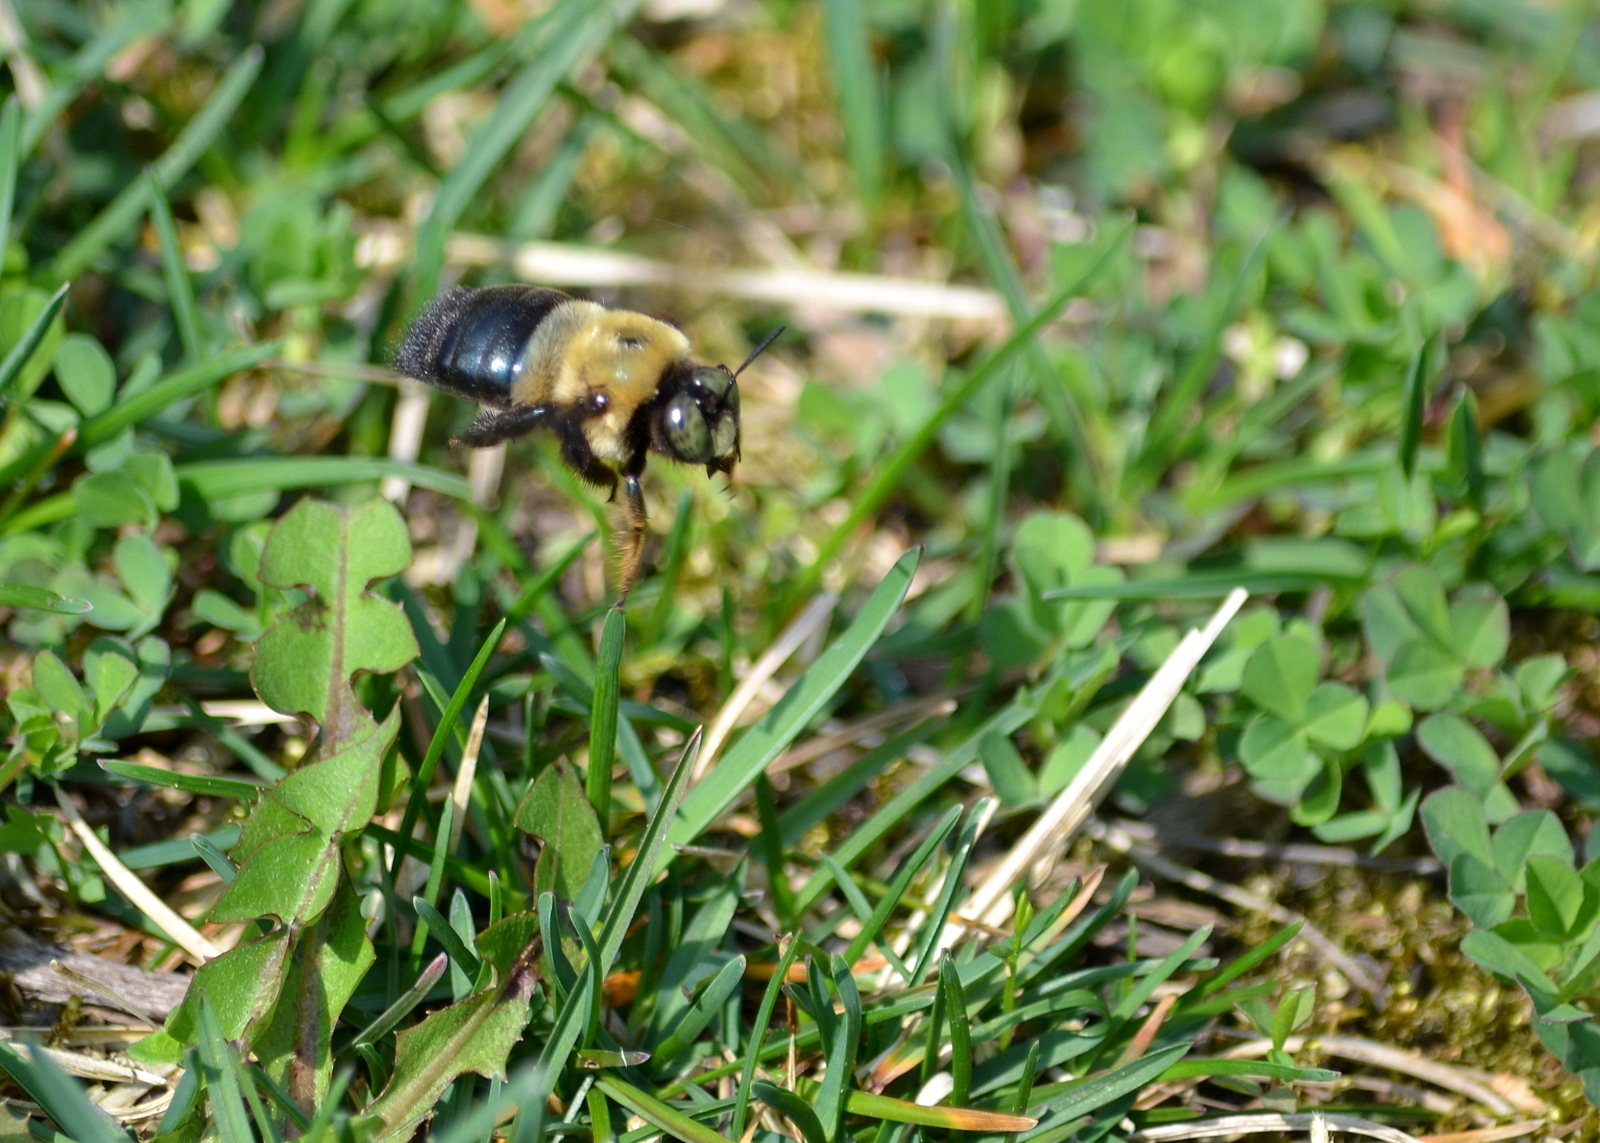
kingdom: Animalia
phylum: Arthropoda
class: Insecta
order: Hymenoptera
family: Apidae
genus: Xylocopa
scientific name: Xylocopa virginica
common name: Carpenter bee
